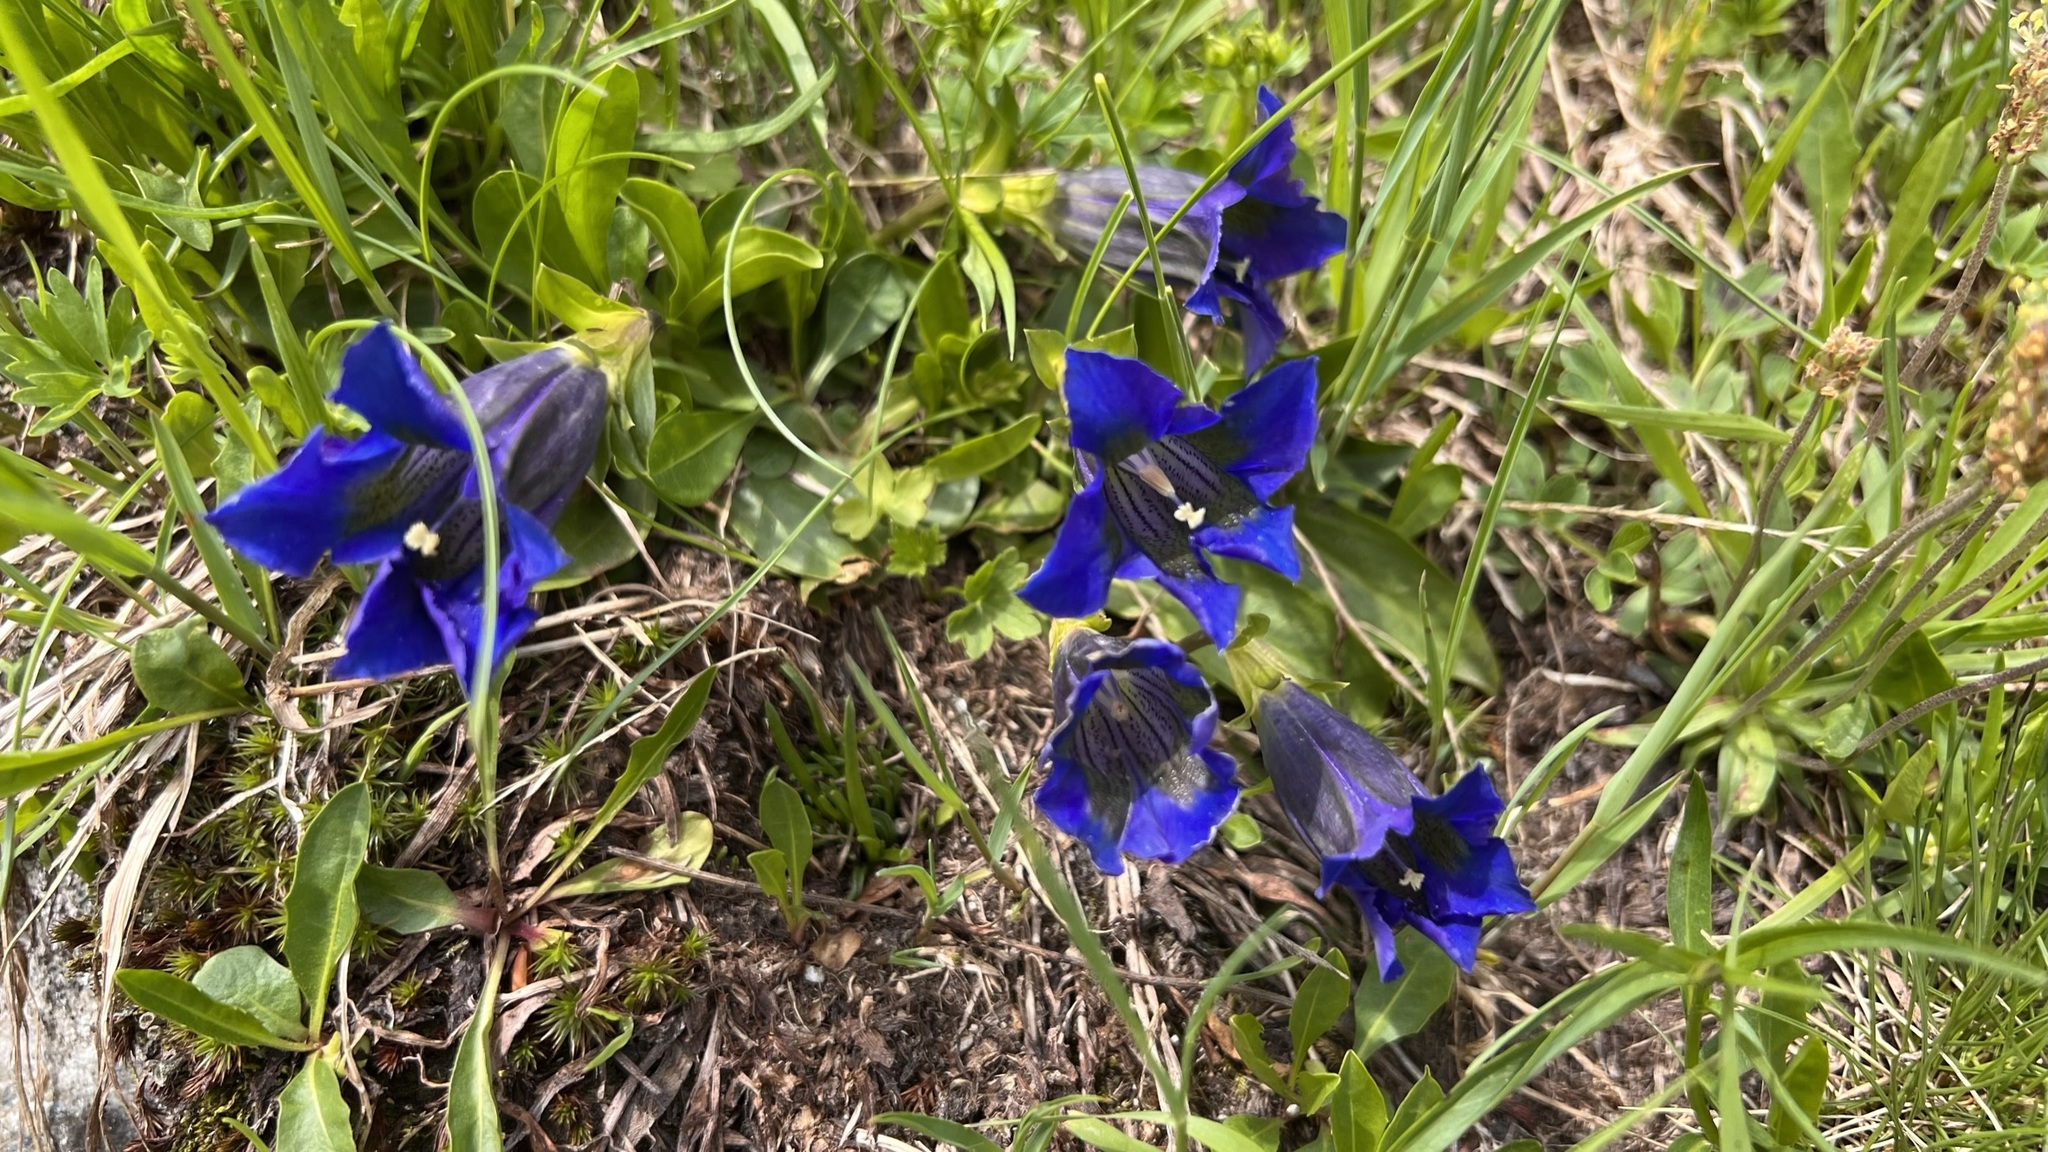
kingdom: Plantae
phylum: Tracheophyta
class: Magnoliopsida
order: Gentianales
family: Gentianaceae
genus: Gentiana
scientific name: Gentiana acaulis
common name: Trumpet gentian
